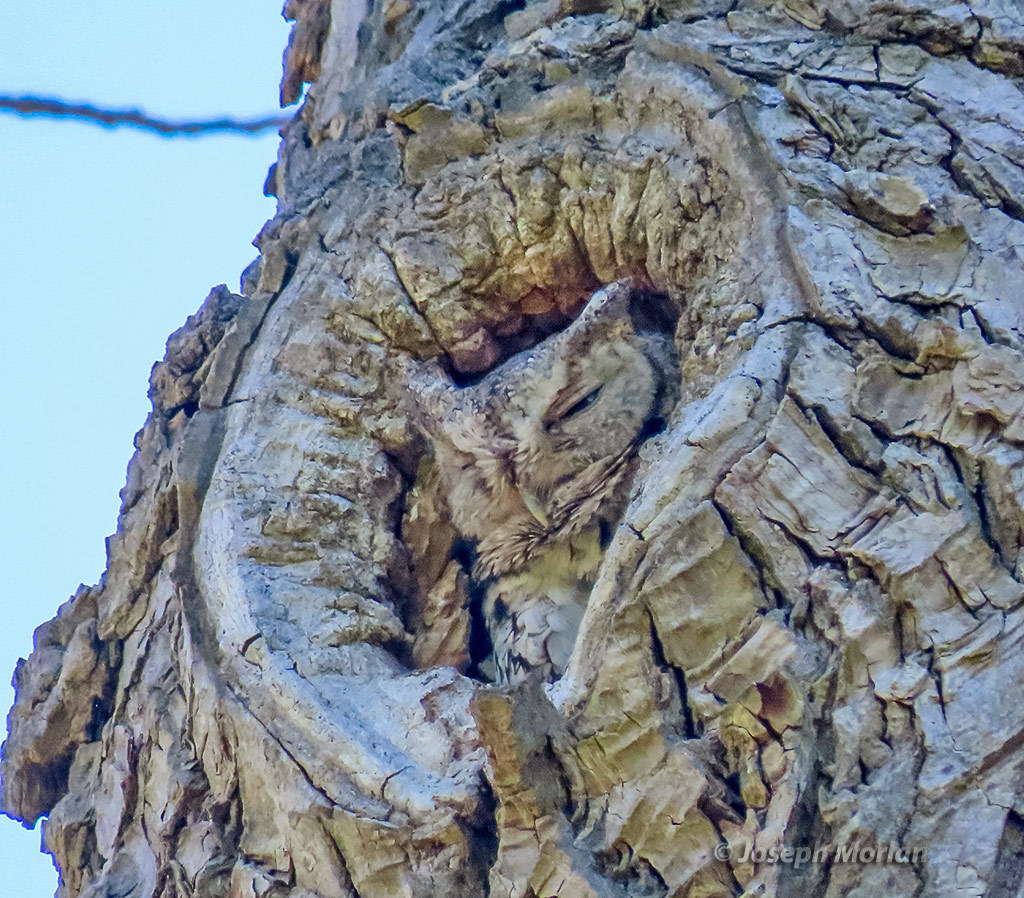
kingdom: Animalia
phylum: Chordata
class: Aves
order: Strigiformes
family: Strigidae
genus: Megascops
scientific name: Megascops asio
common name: Eastern screech-owl
